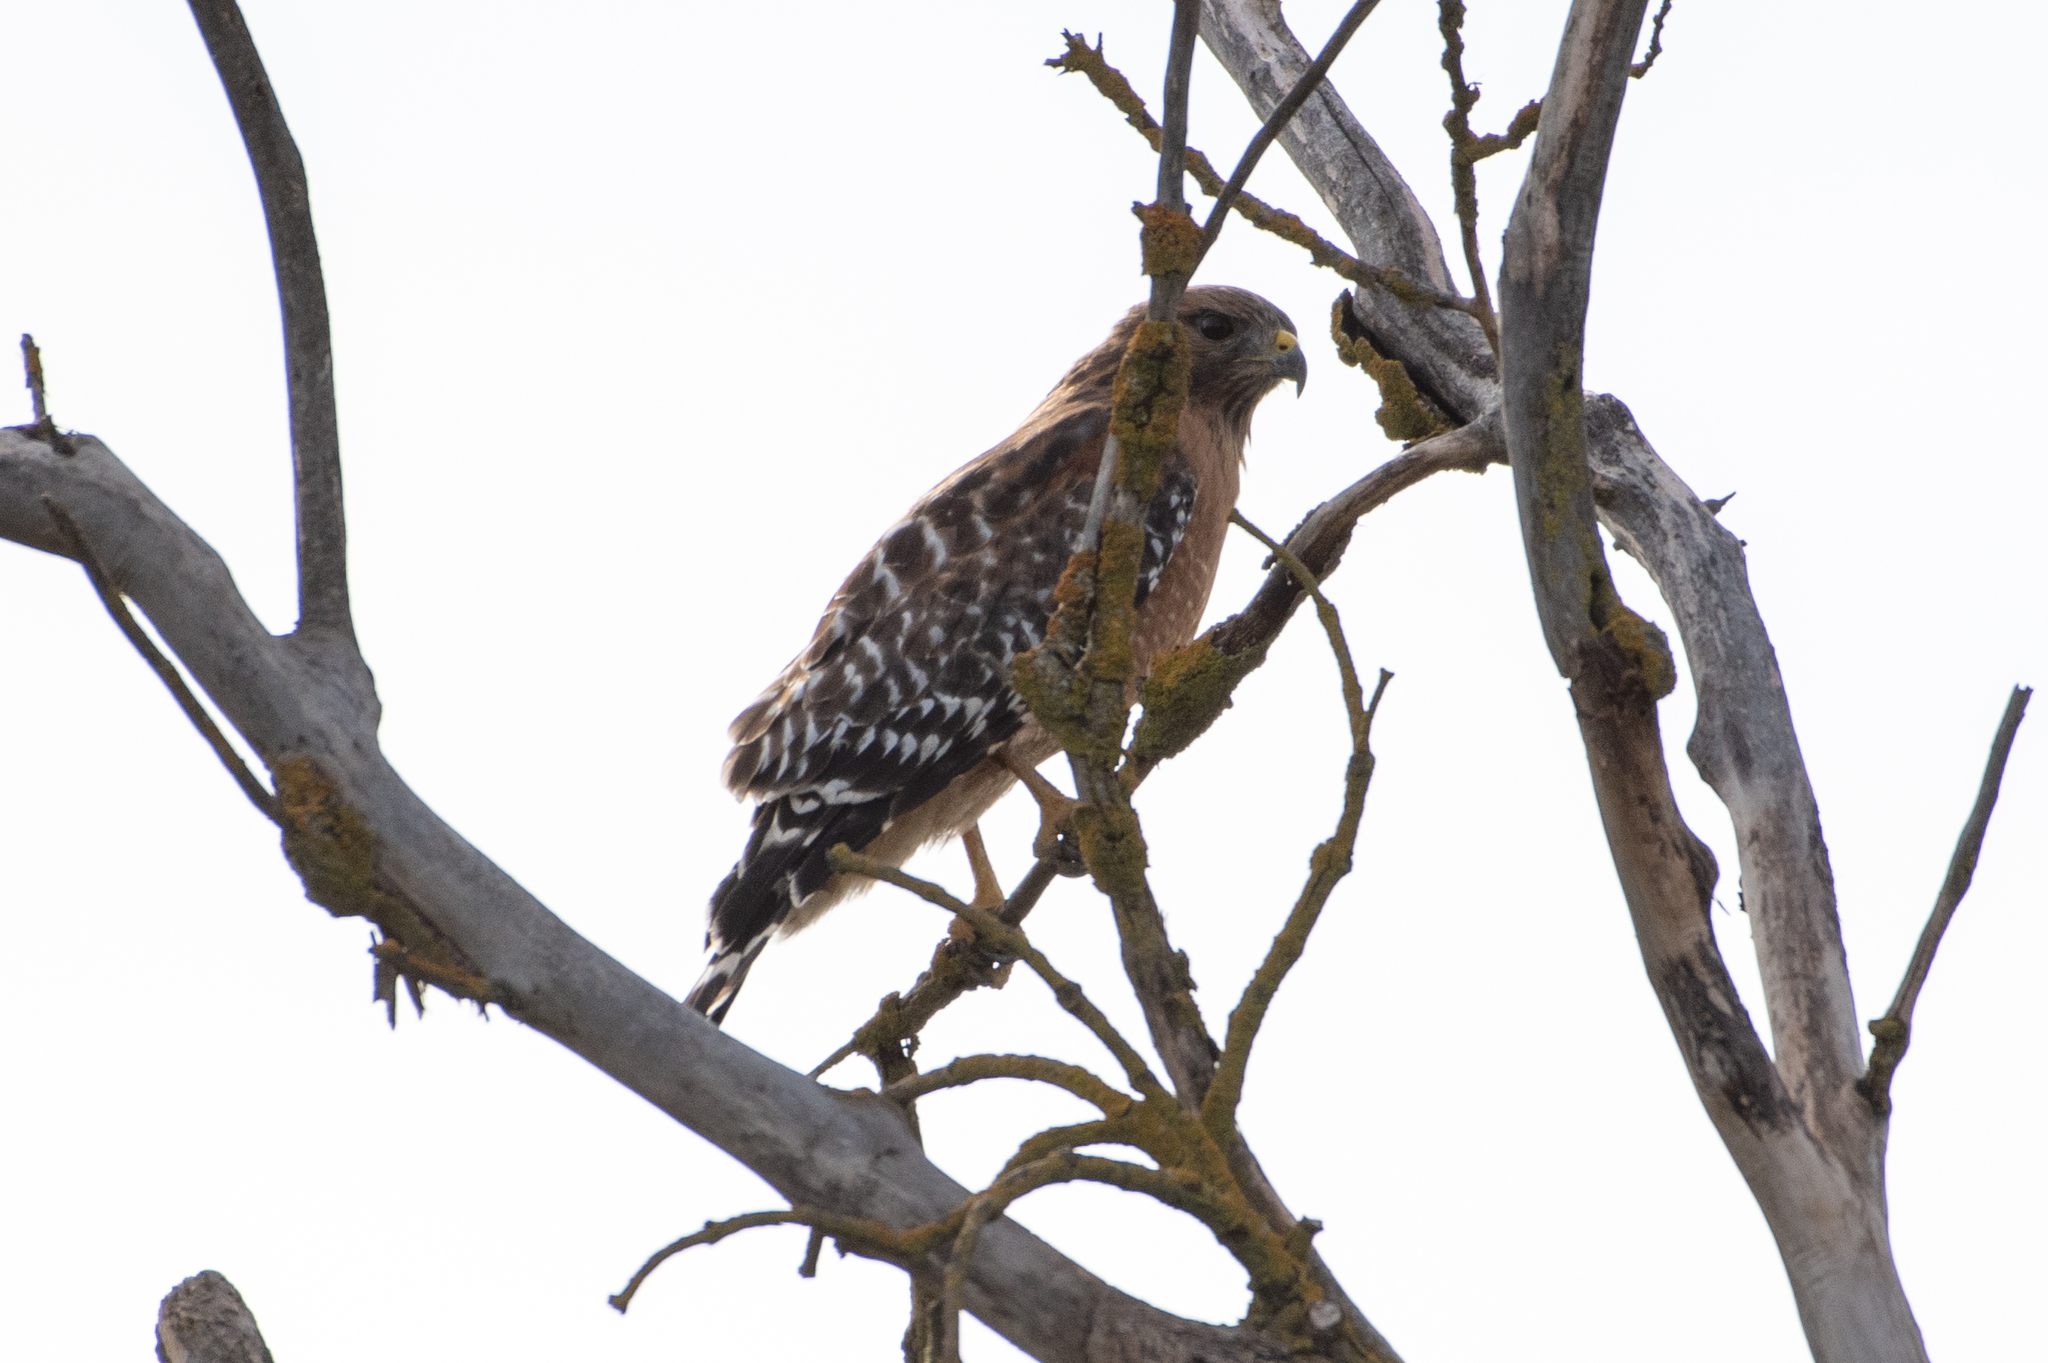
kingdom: Animalia
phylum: Chordata
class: Aves
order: Accipitriformes
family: Accipitridae
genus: Buteo
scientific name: Buteo lineatus
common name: Red-shouldered hawk
